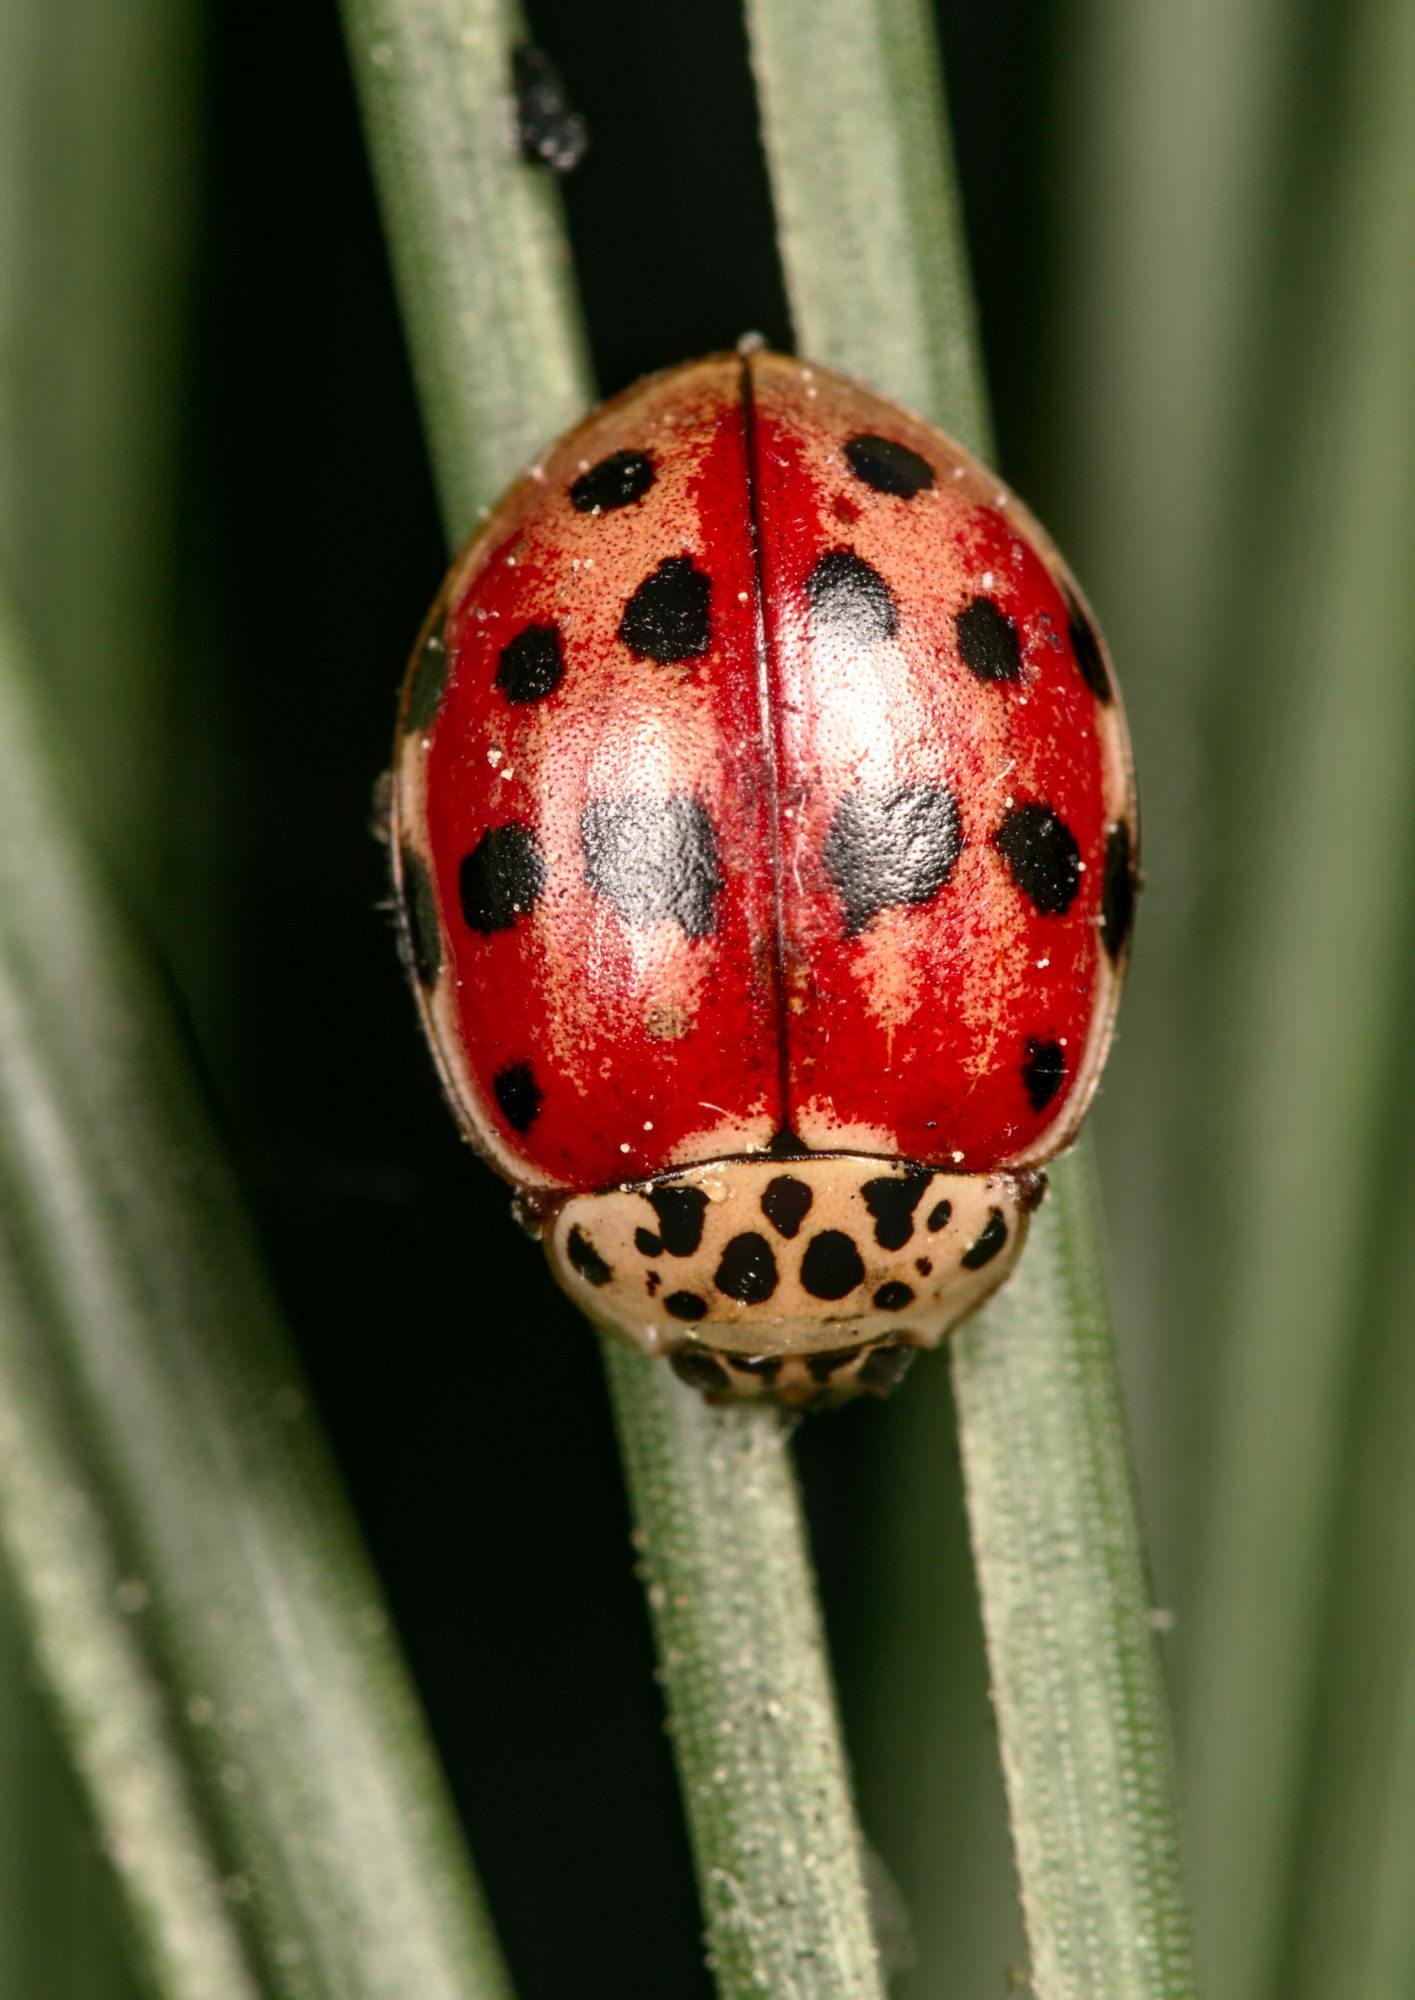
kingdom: Animalia
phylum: Arthropoda
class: Insecta
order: Coleoptera
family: Coccinellidae
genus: Harmonia
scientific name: Harmonia quadripunctata
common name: Cream-streaked ladybird
